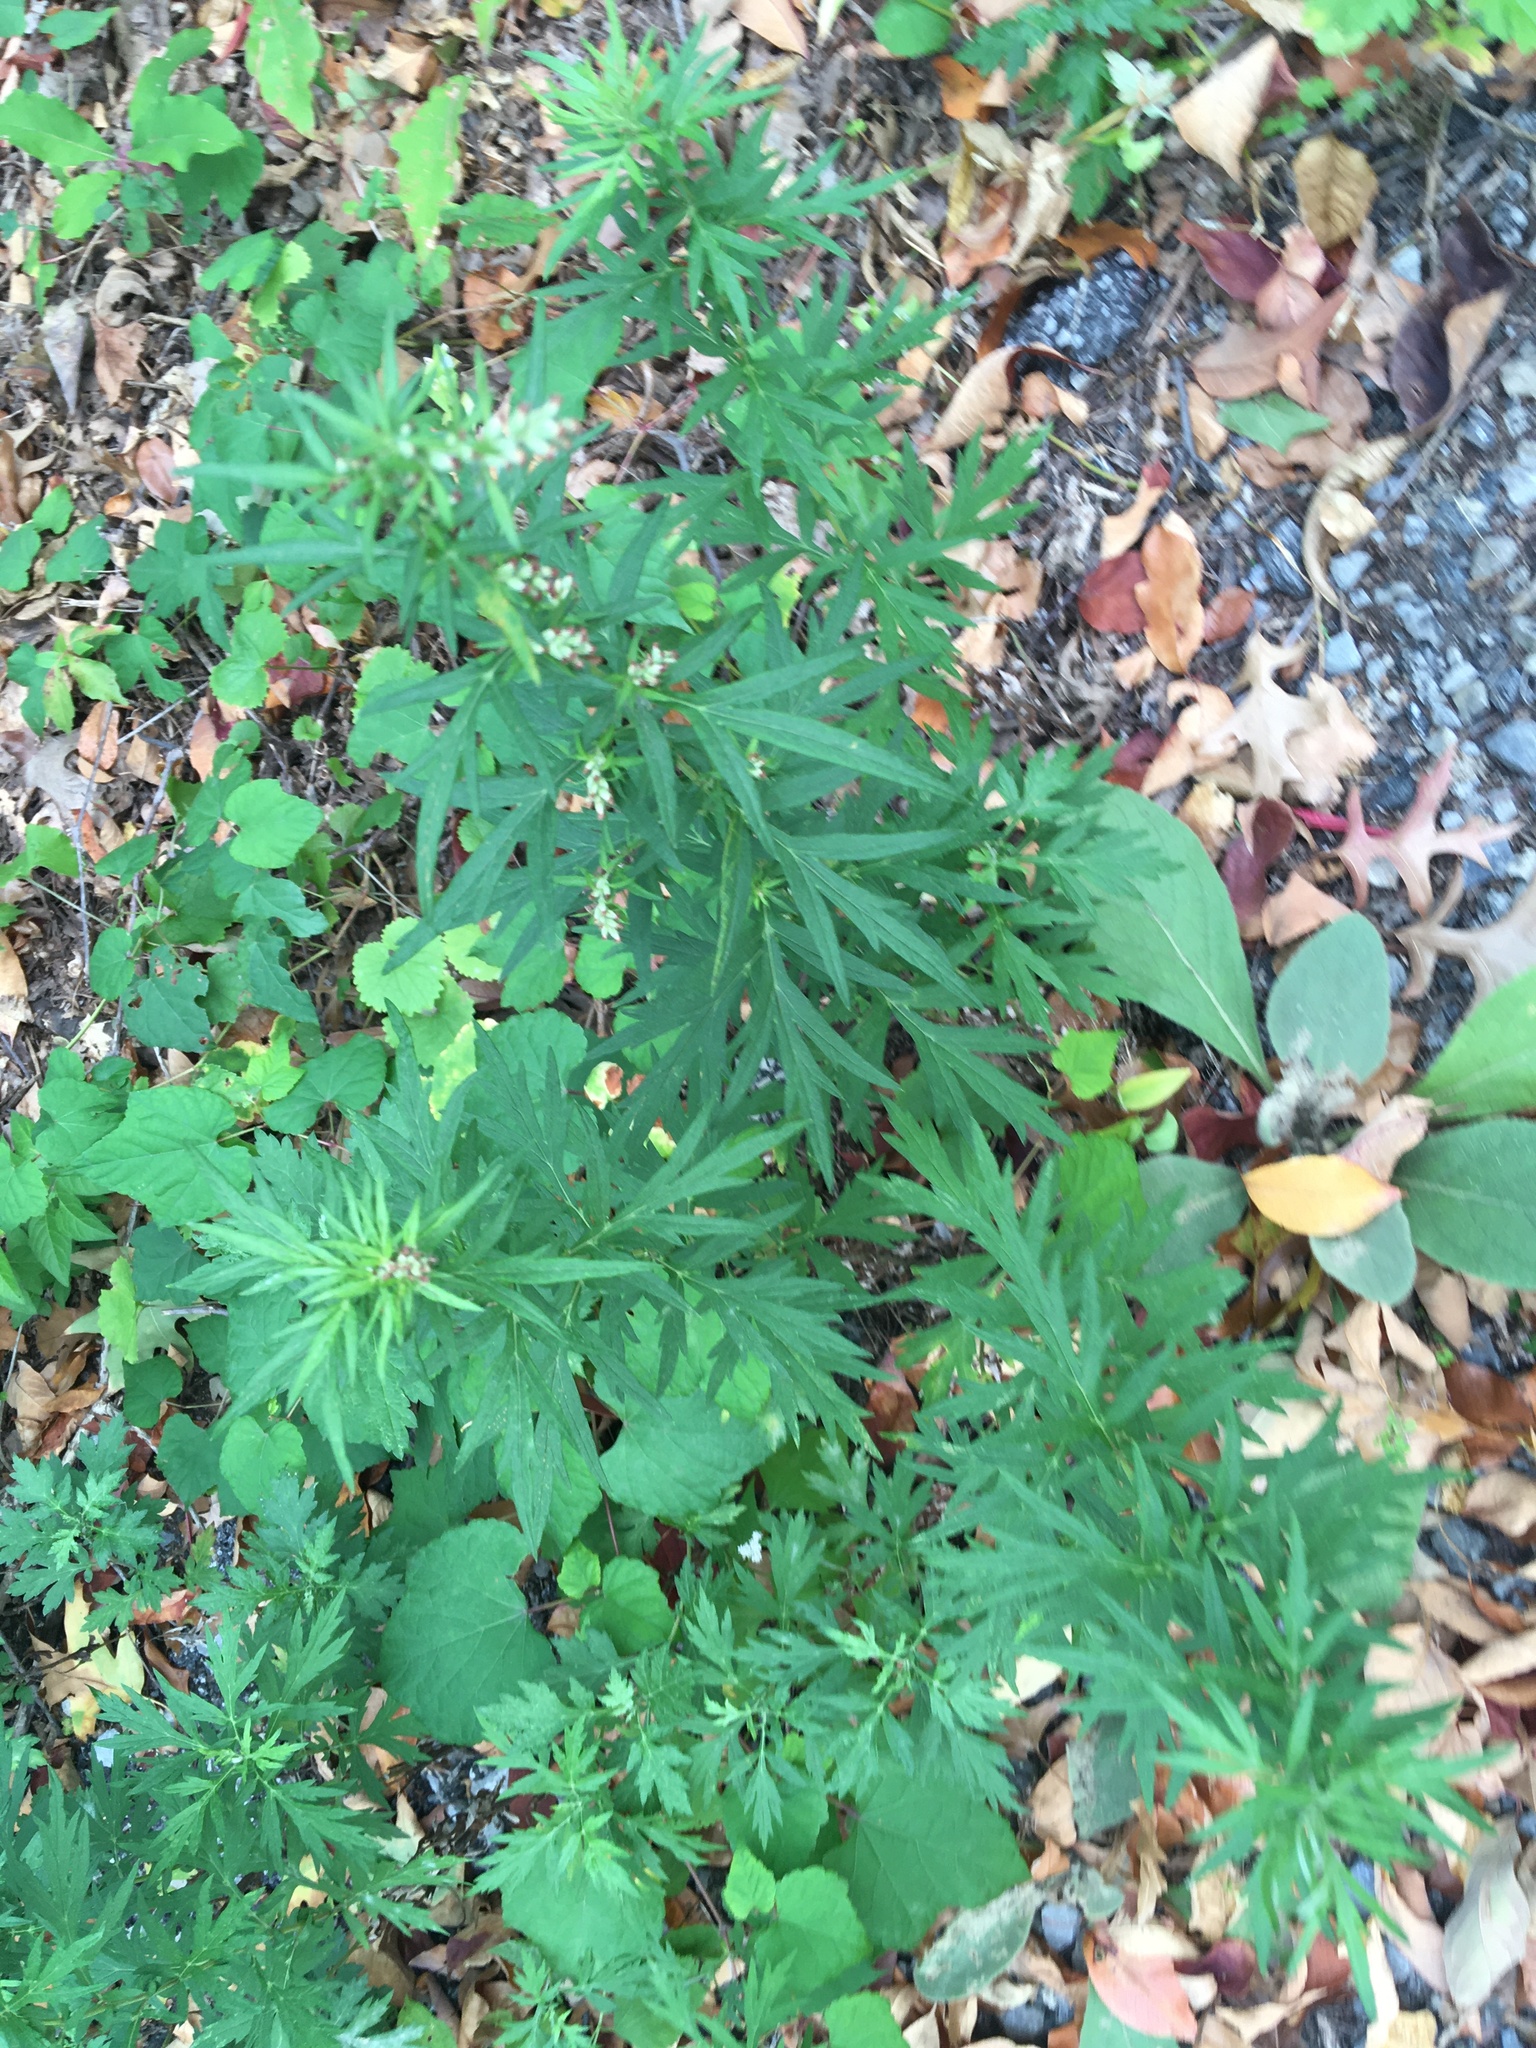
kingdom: Plantae
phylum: Tracheophyta
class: Magnoliopsida
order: Asterales
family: Asteraceae
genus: Artemisia
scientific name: Artemisia vulgaris
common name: Mugwort
